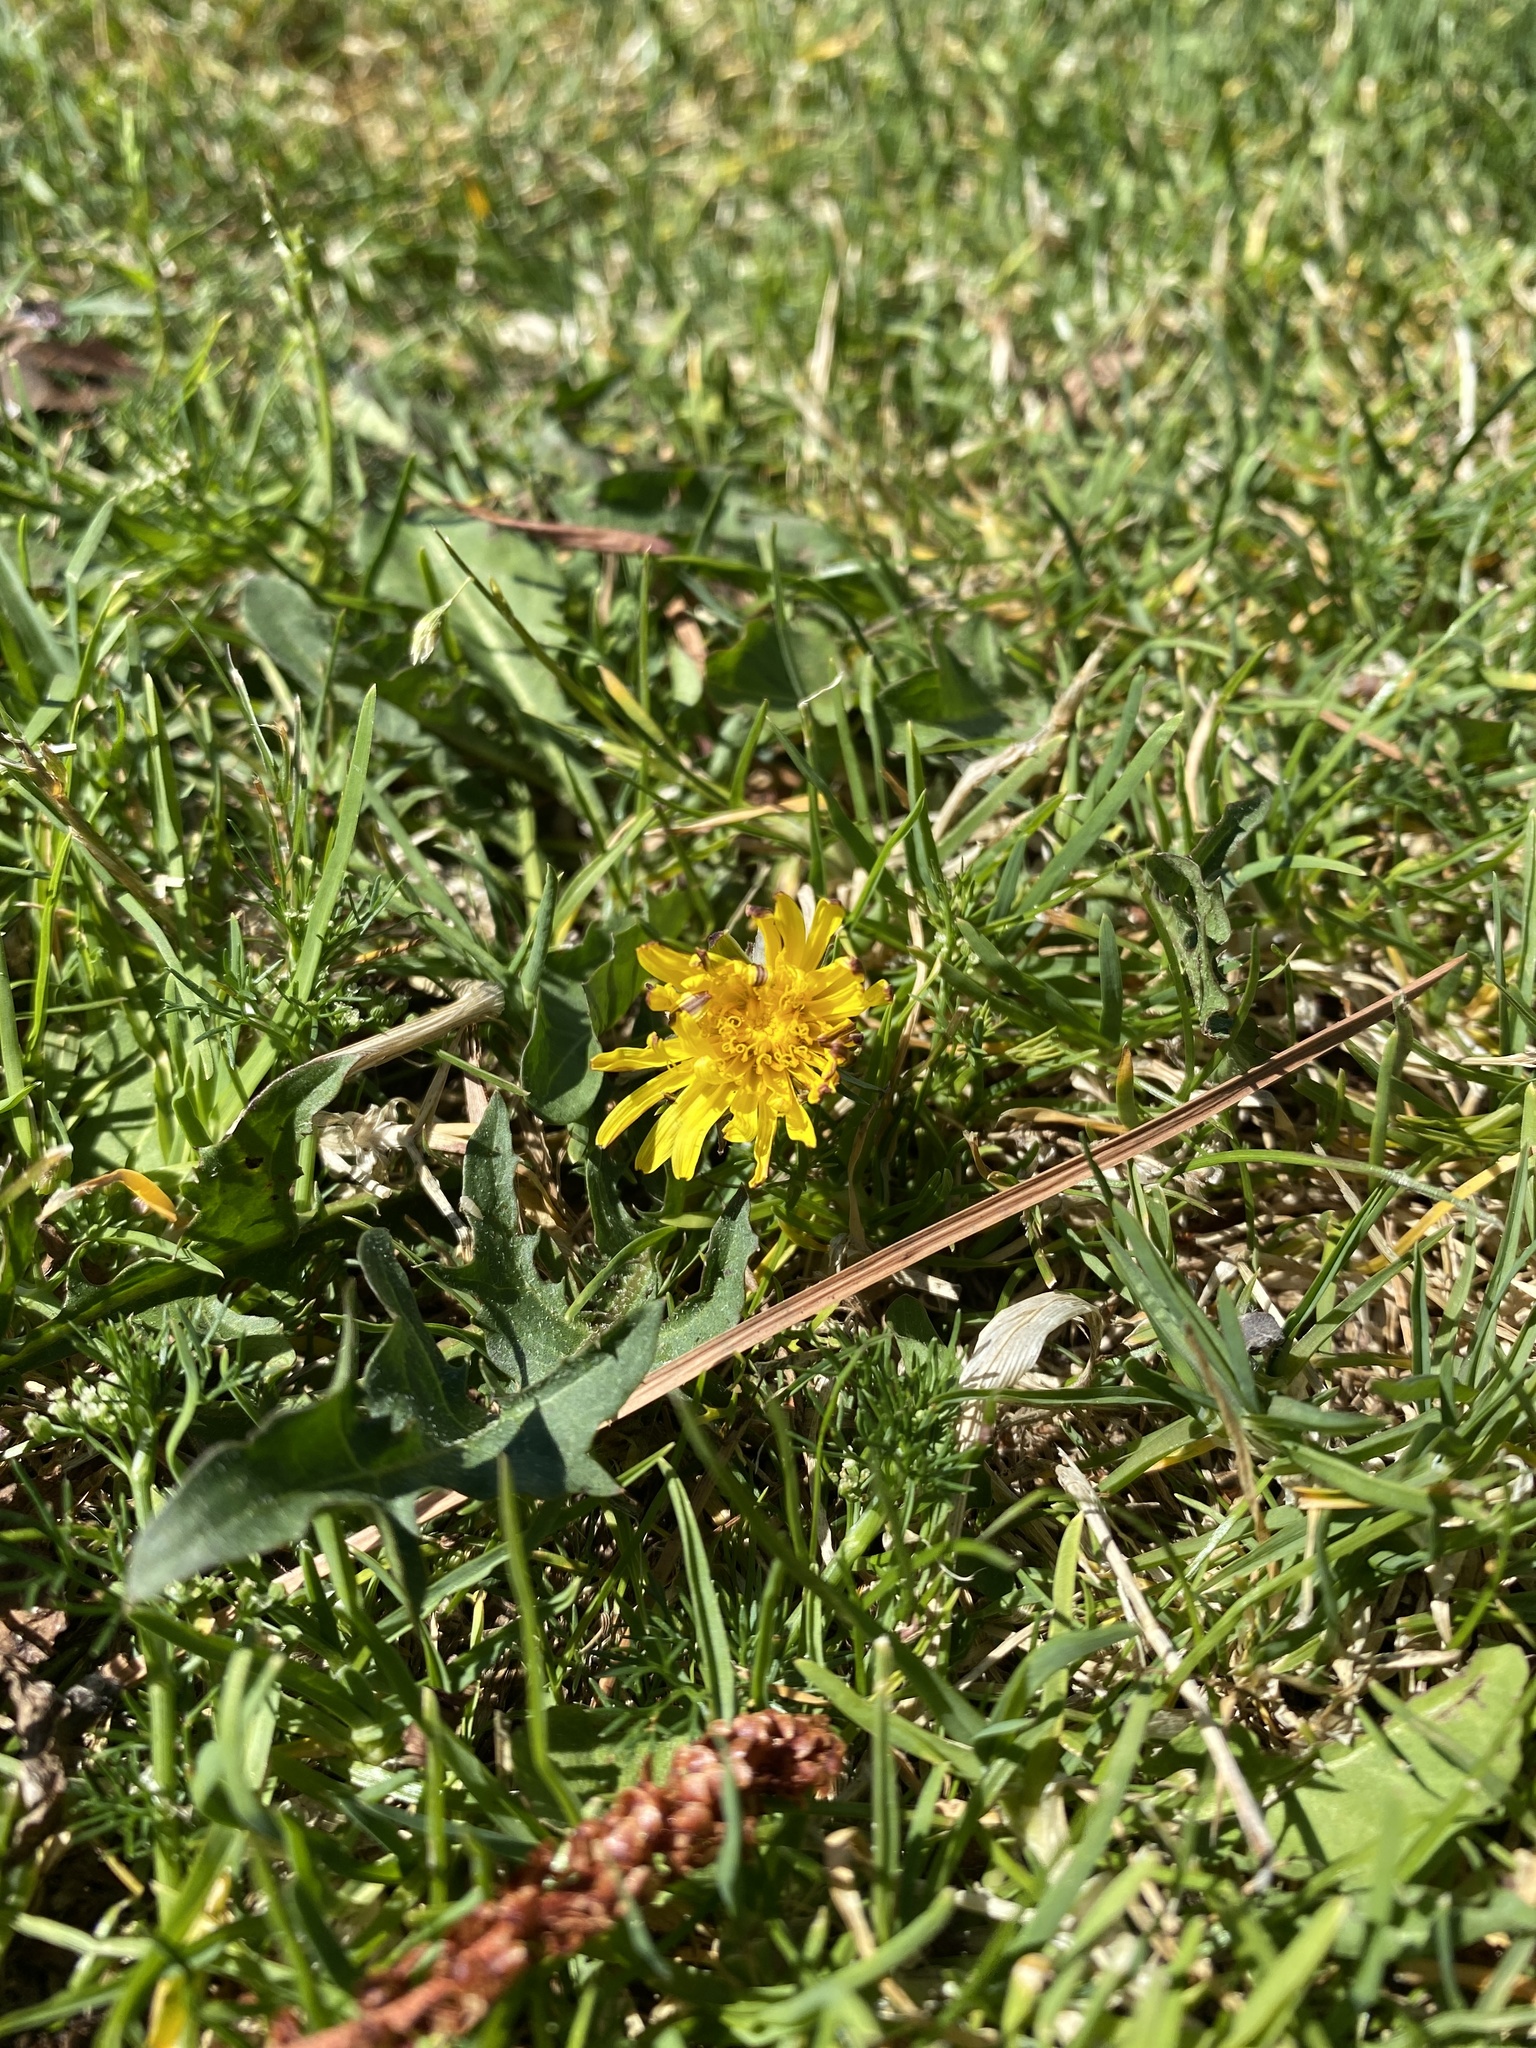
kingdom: Plantae
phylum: Tracheophyta
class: Magnoliopsida
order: Asterales
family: Asteraceae
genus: Taraxacum
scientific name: Taraxacum officinale
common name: Common dandelion
